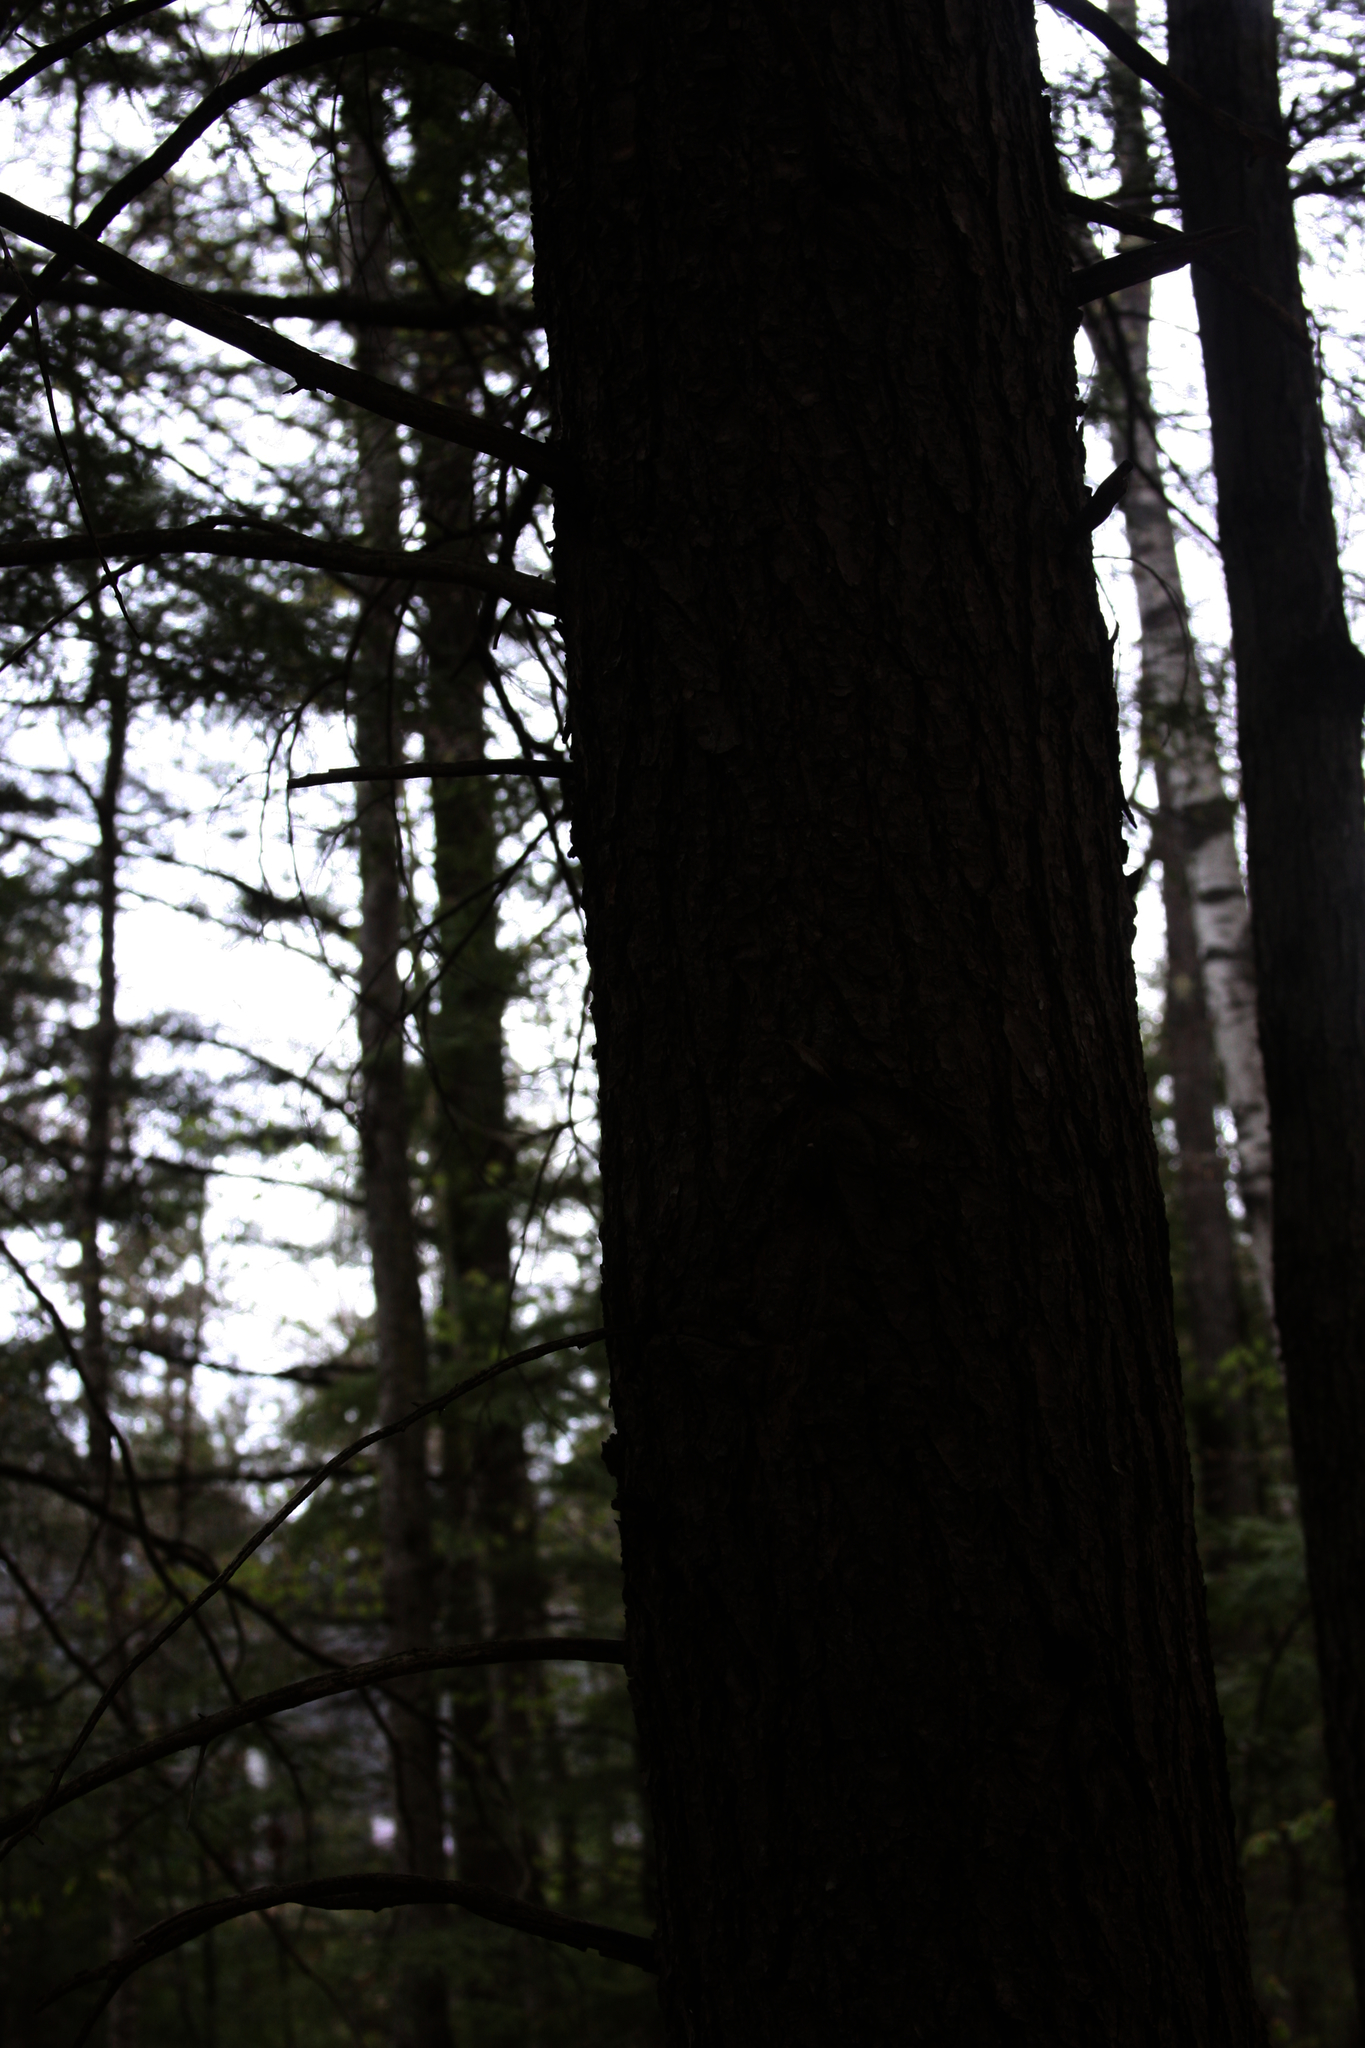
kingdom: Plantae
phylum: Tracheophyta
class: Pinopsida
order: Pinales
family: Pinaceae
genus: Tsuga
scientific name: Tsuga canadensis
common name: Eastern hemlock
